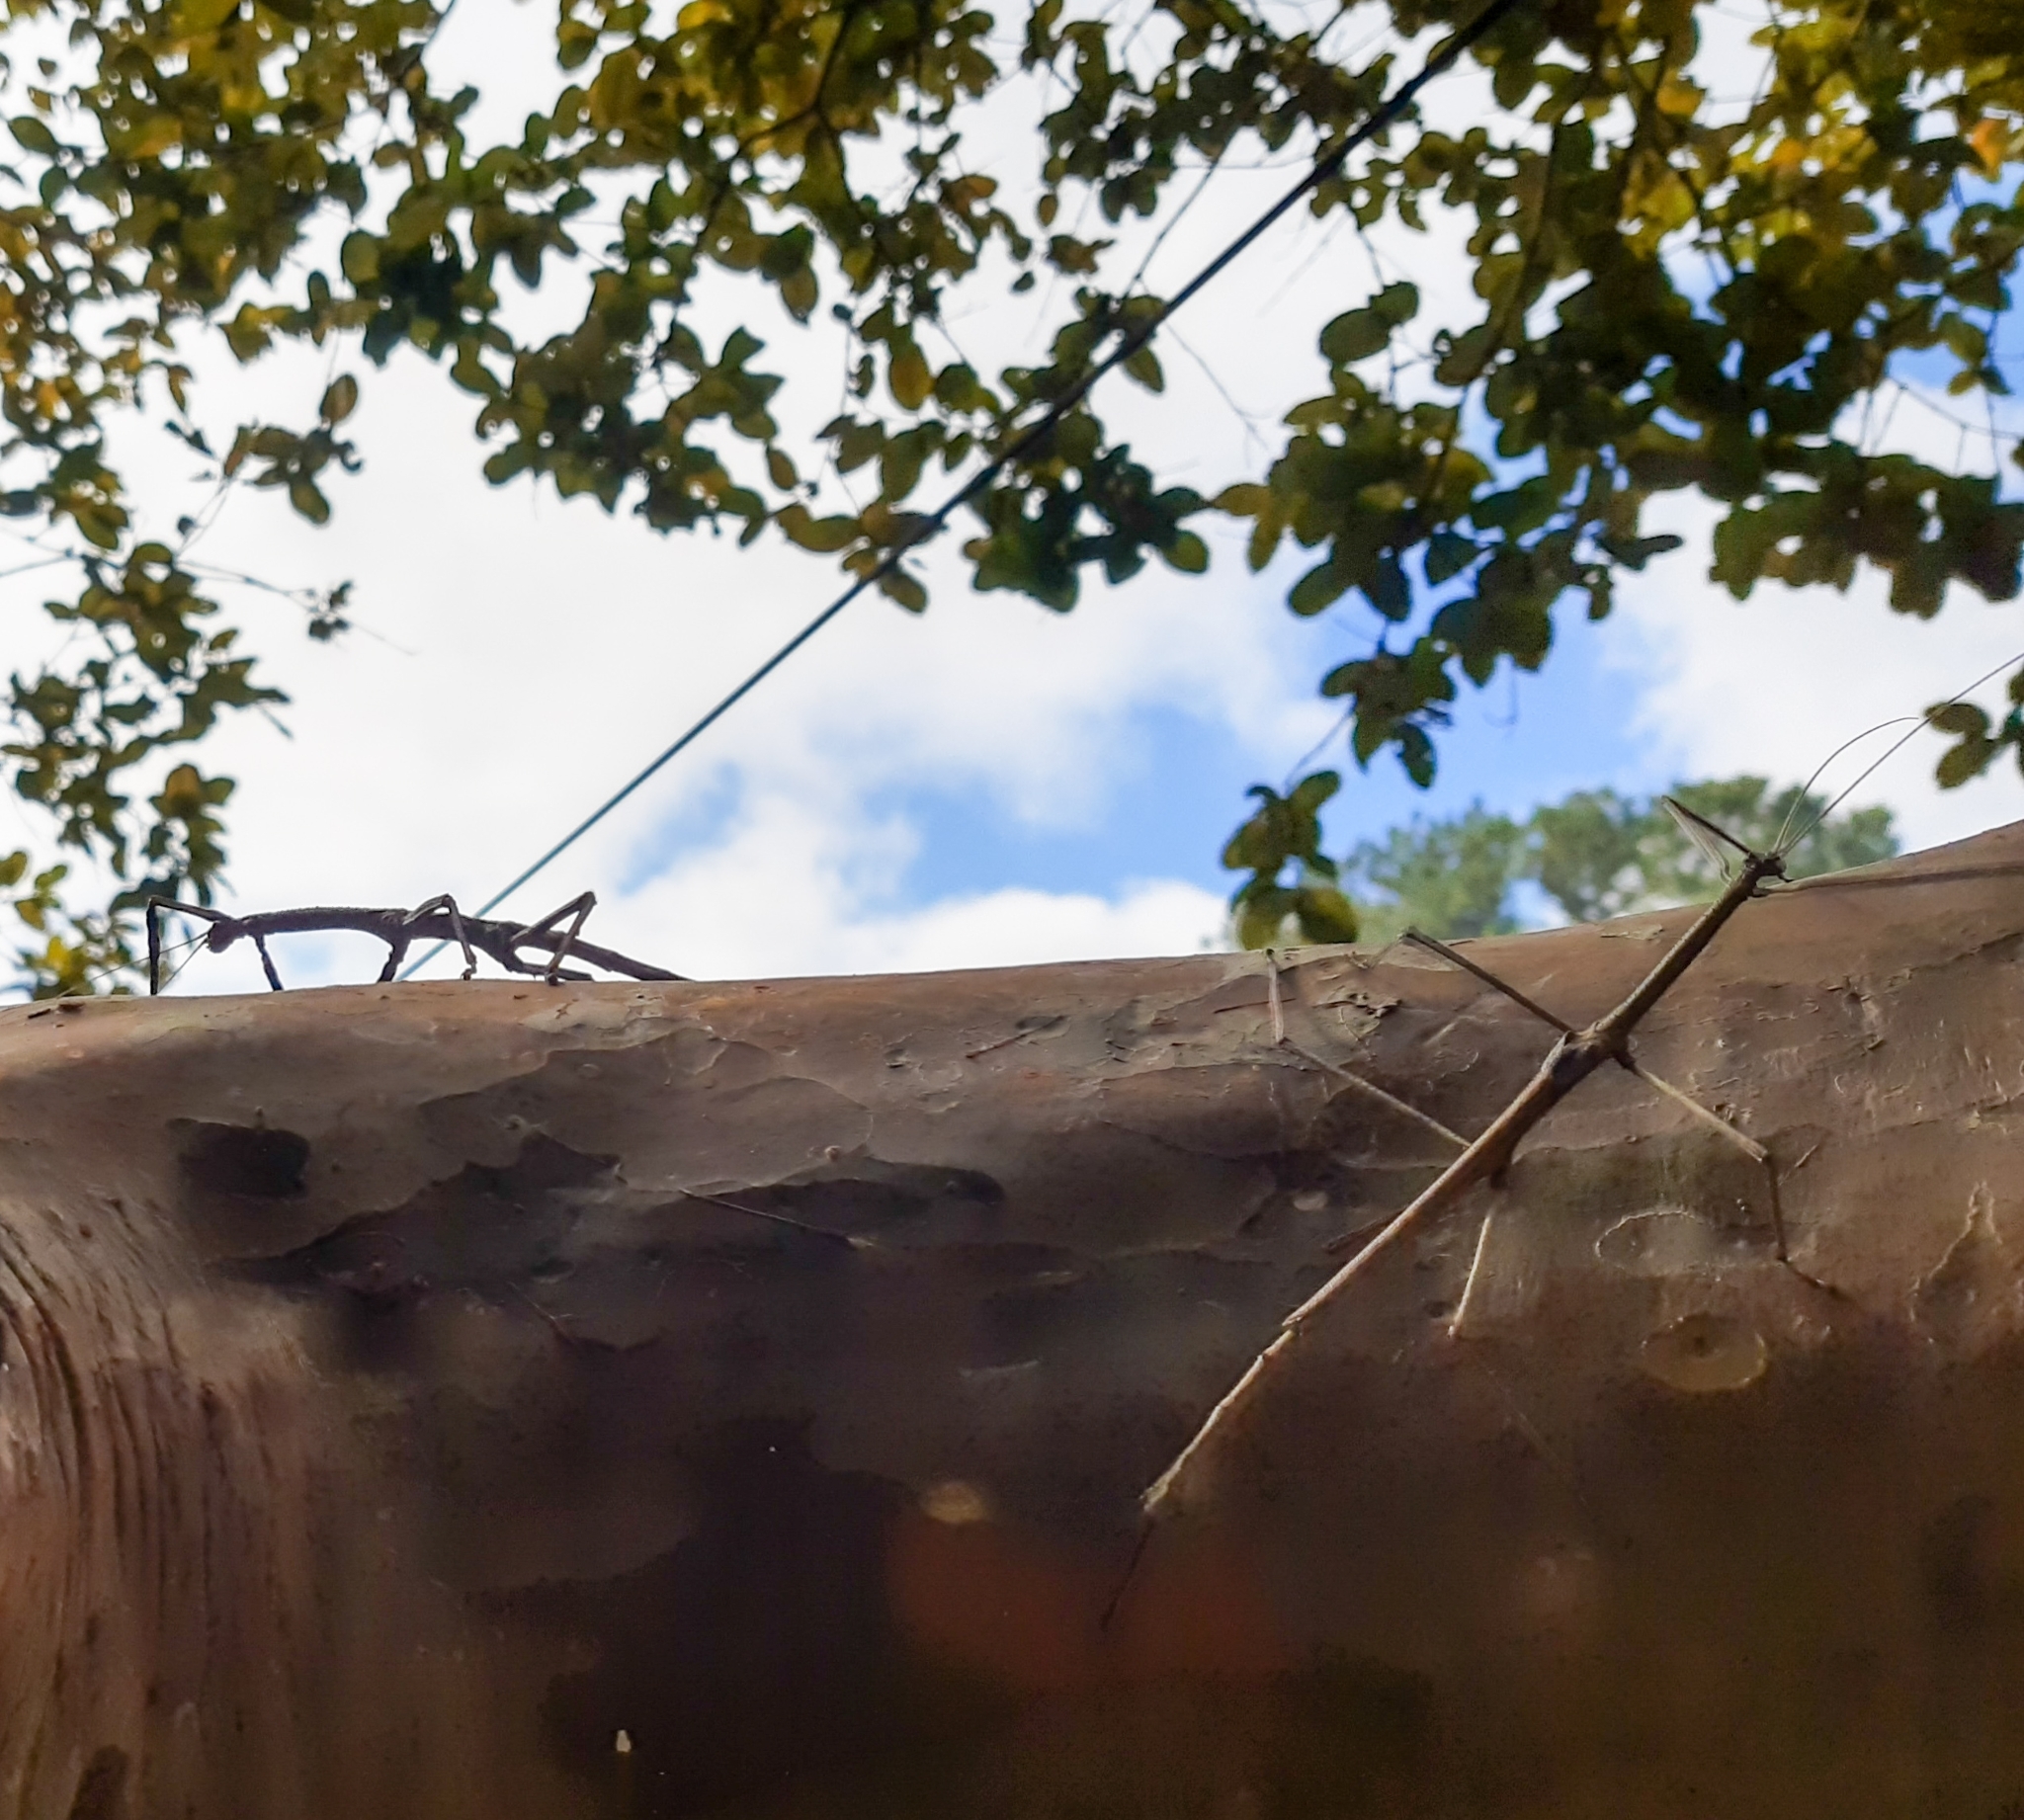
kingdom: Animalia
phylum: Arthropoda
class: Insecta
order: Phasmida
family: Phasmatidae
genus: Cladomorphus
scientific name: Cladomorphus phyllinus
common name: Brazilian giant stick insect
